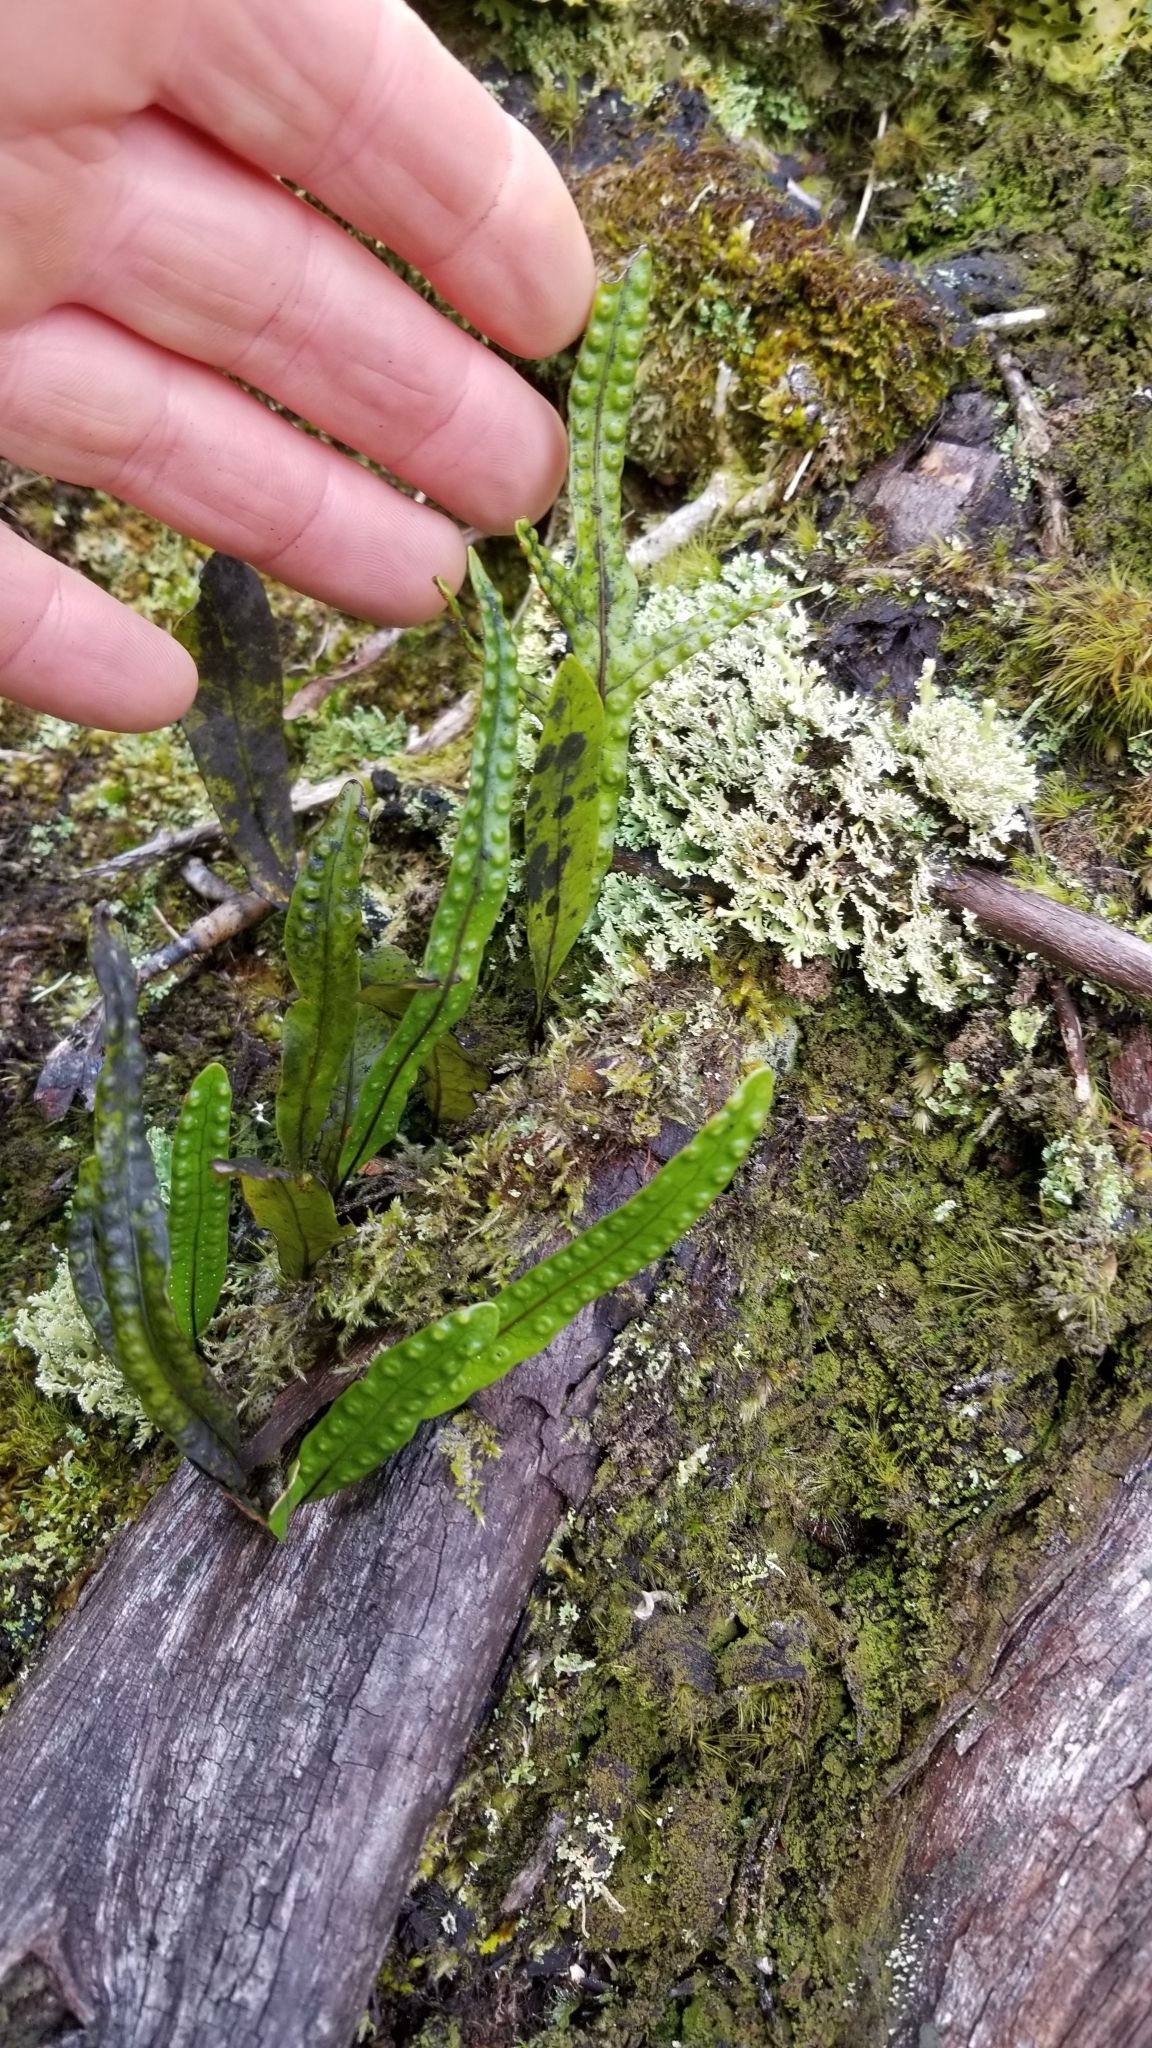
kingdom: Plantae
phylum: Tracheophyta
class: Polypodiopsida
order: Polypodiales
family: Polypodiaceae
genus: Lecanopteris
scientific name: Lecanopteris pustulata
